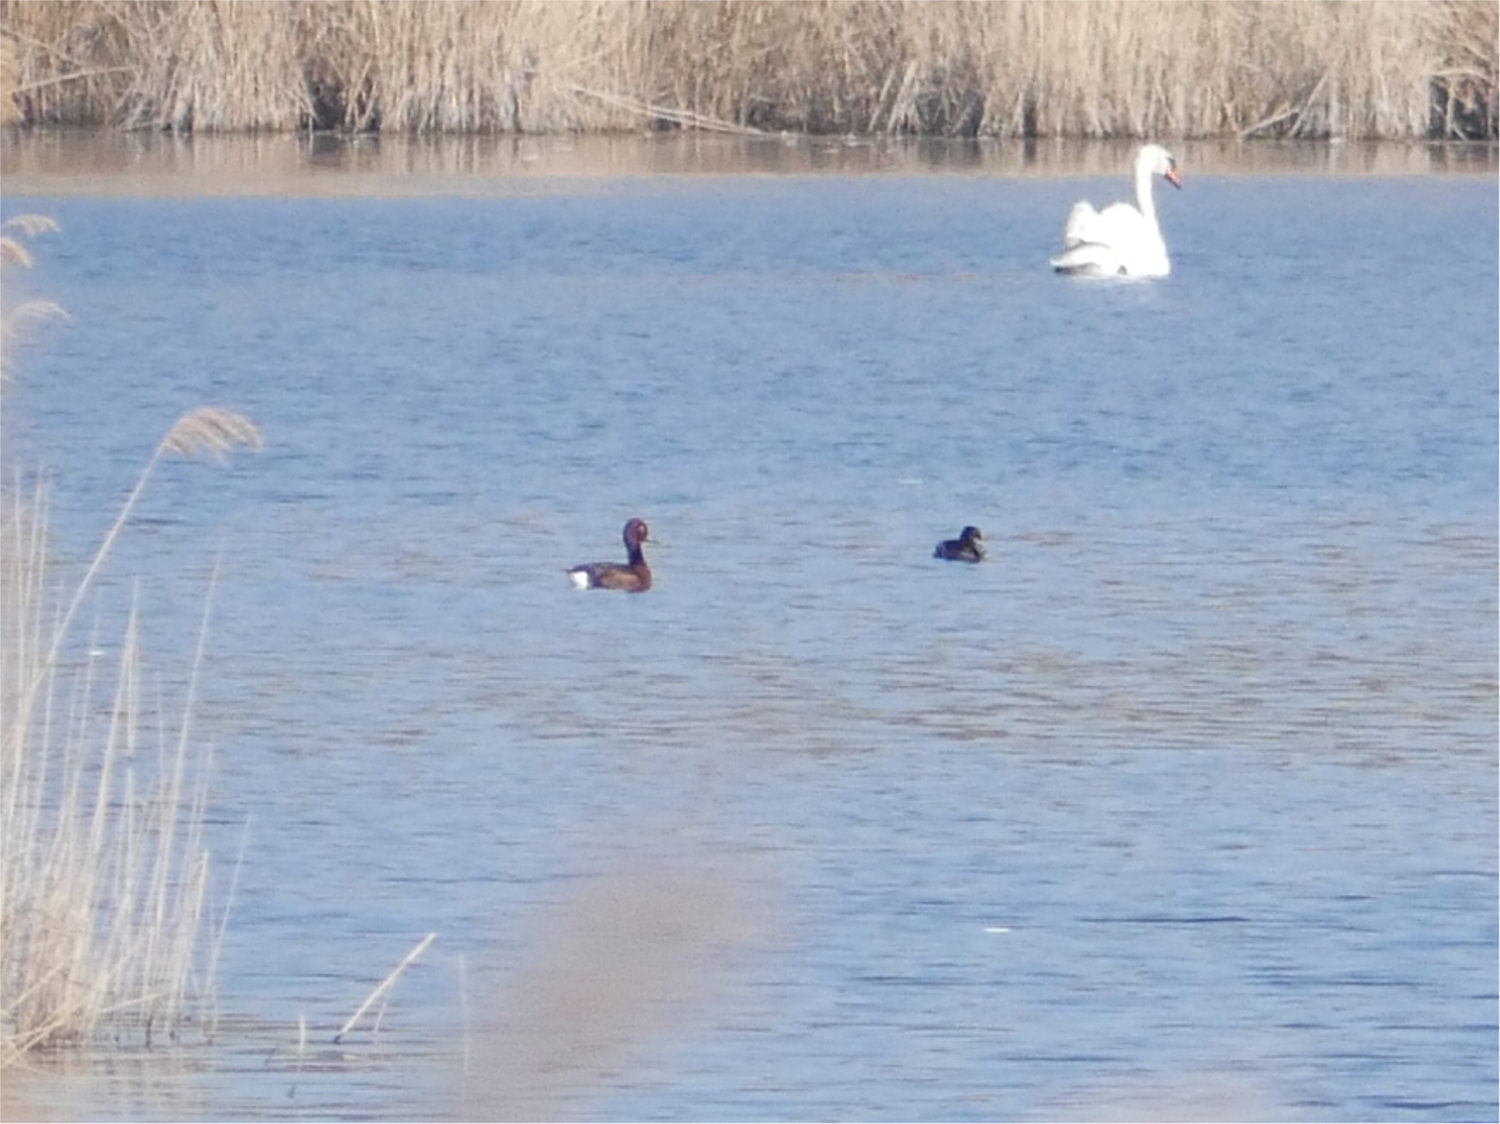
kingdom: Animalia
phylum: Chordata
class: Aves
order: Anseriformes
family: Anatidae
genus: Aythya
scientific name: Aythya nyroca
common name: Ferruginous duck
